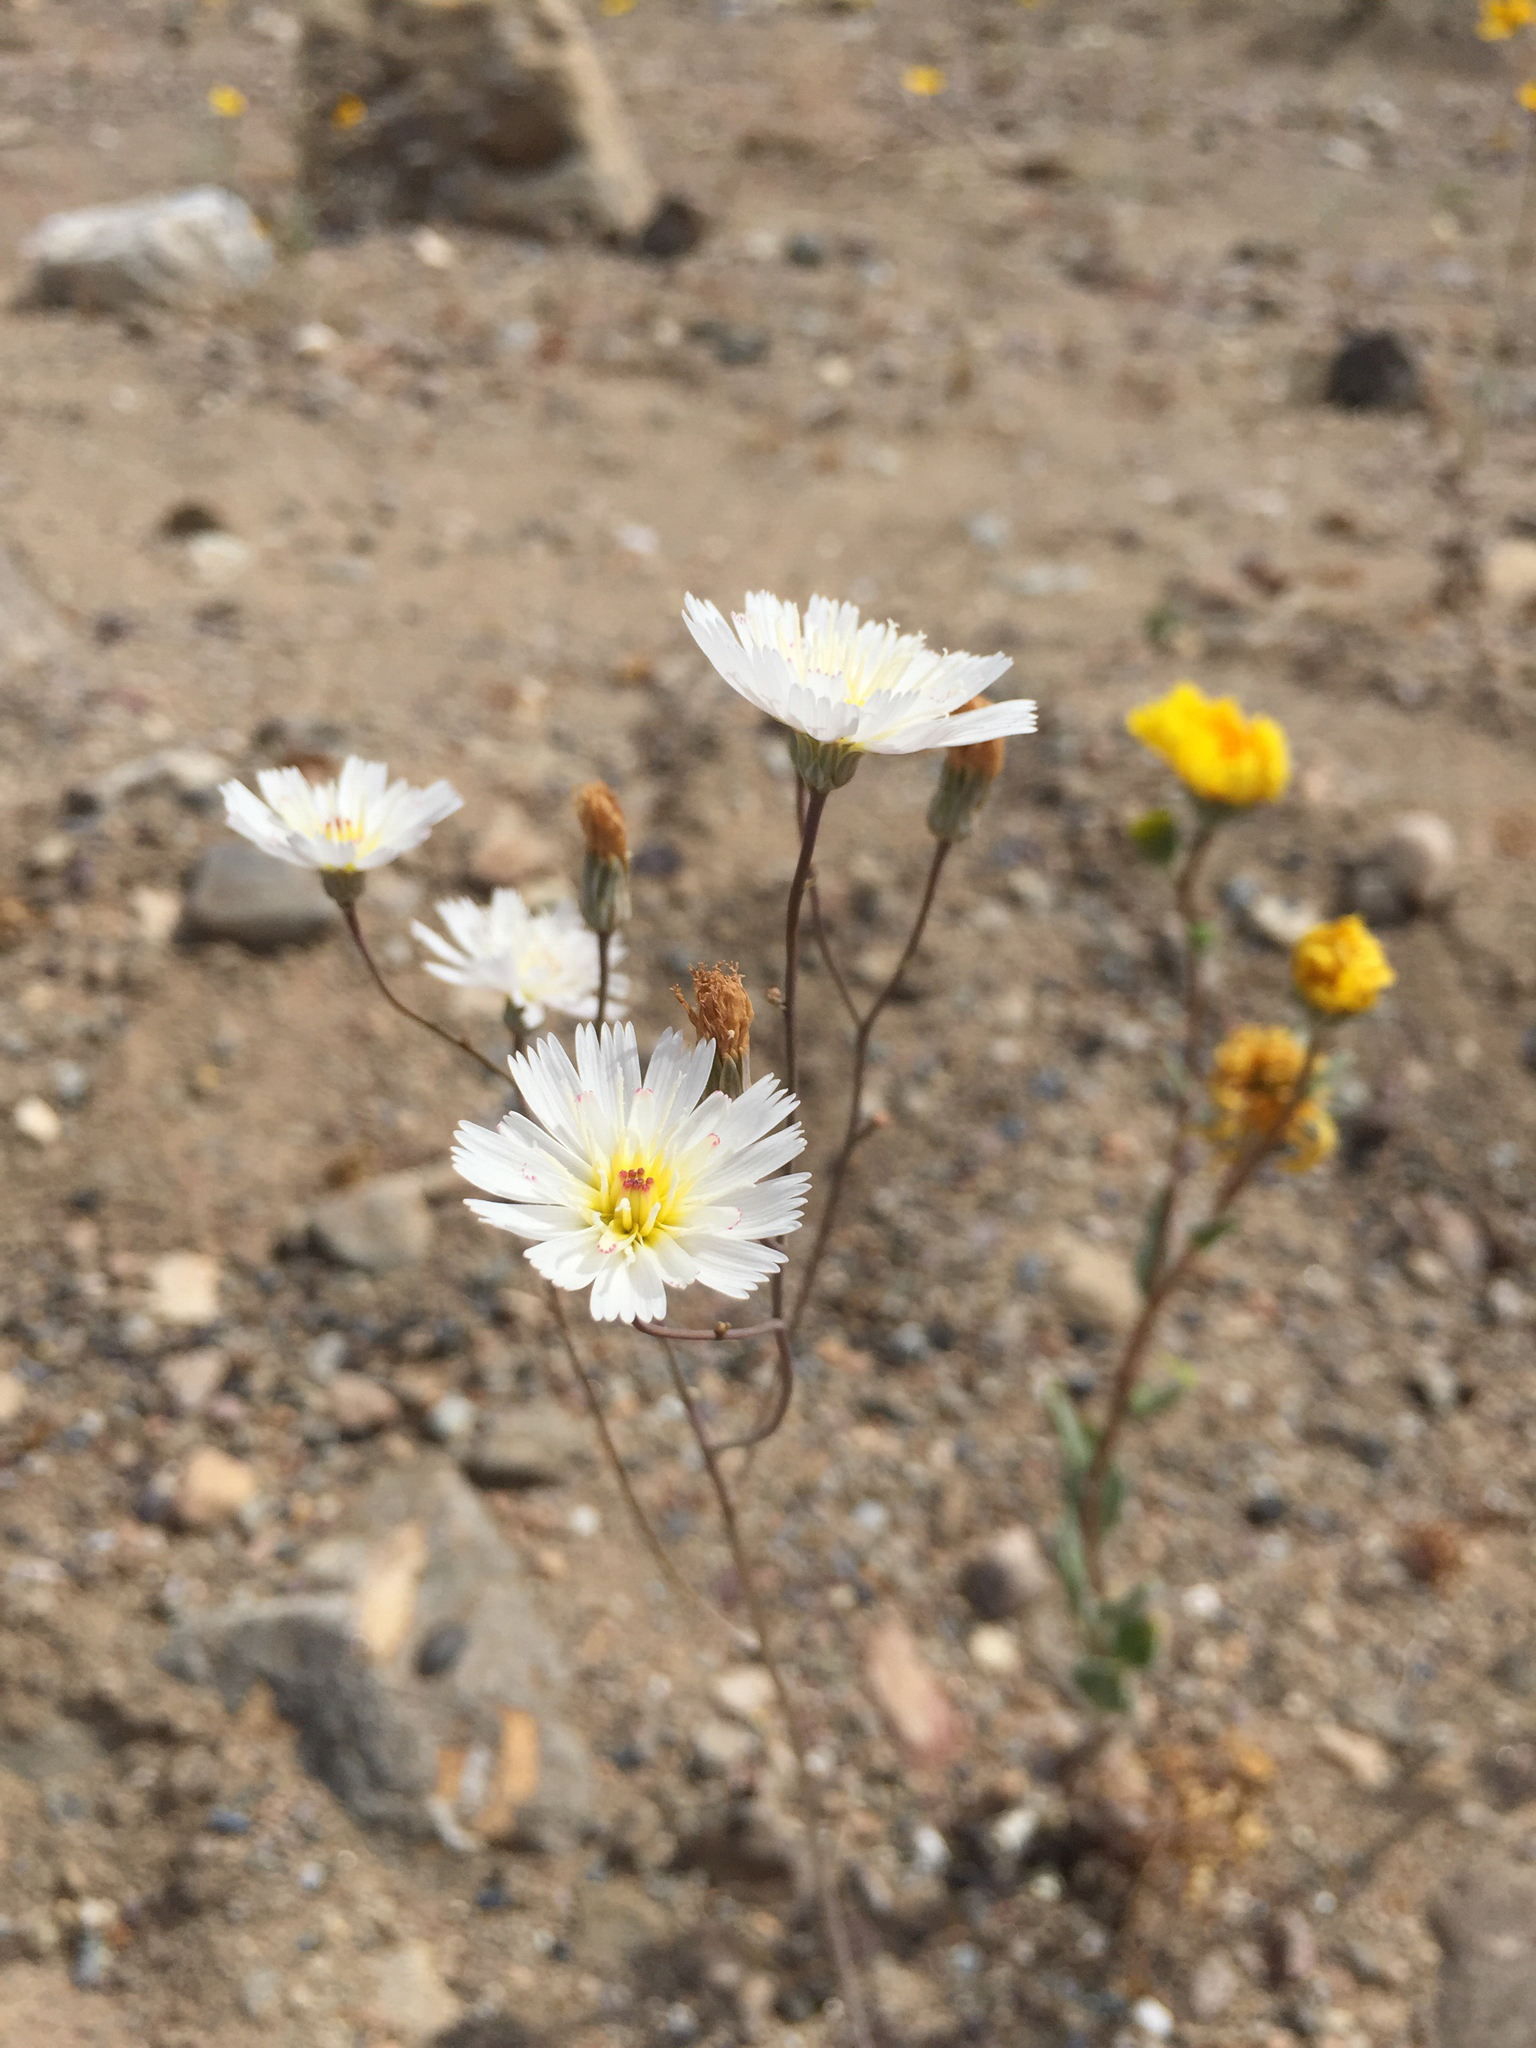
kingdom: Plantae
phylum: Tracheophyta
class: Magnoliopsida
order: Asterales
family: Asteraceae
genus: Atrichoseris
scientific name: Atrichoseris platyphylla
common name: Tobaccoweed
